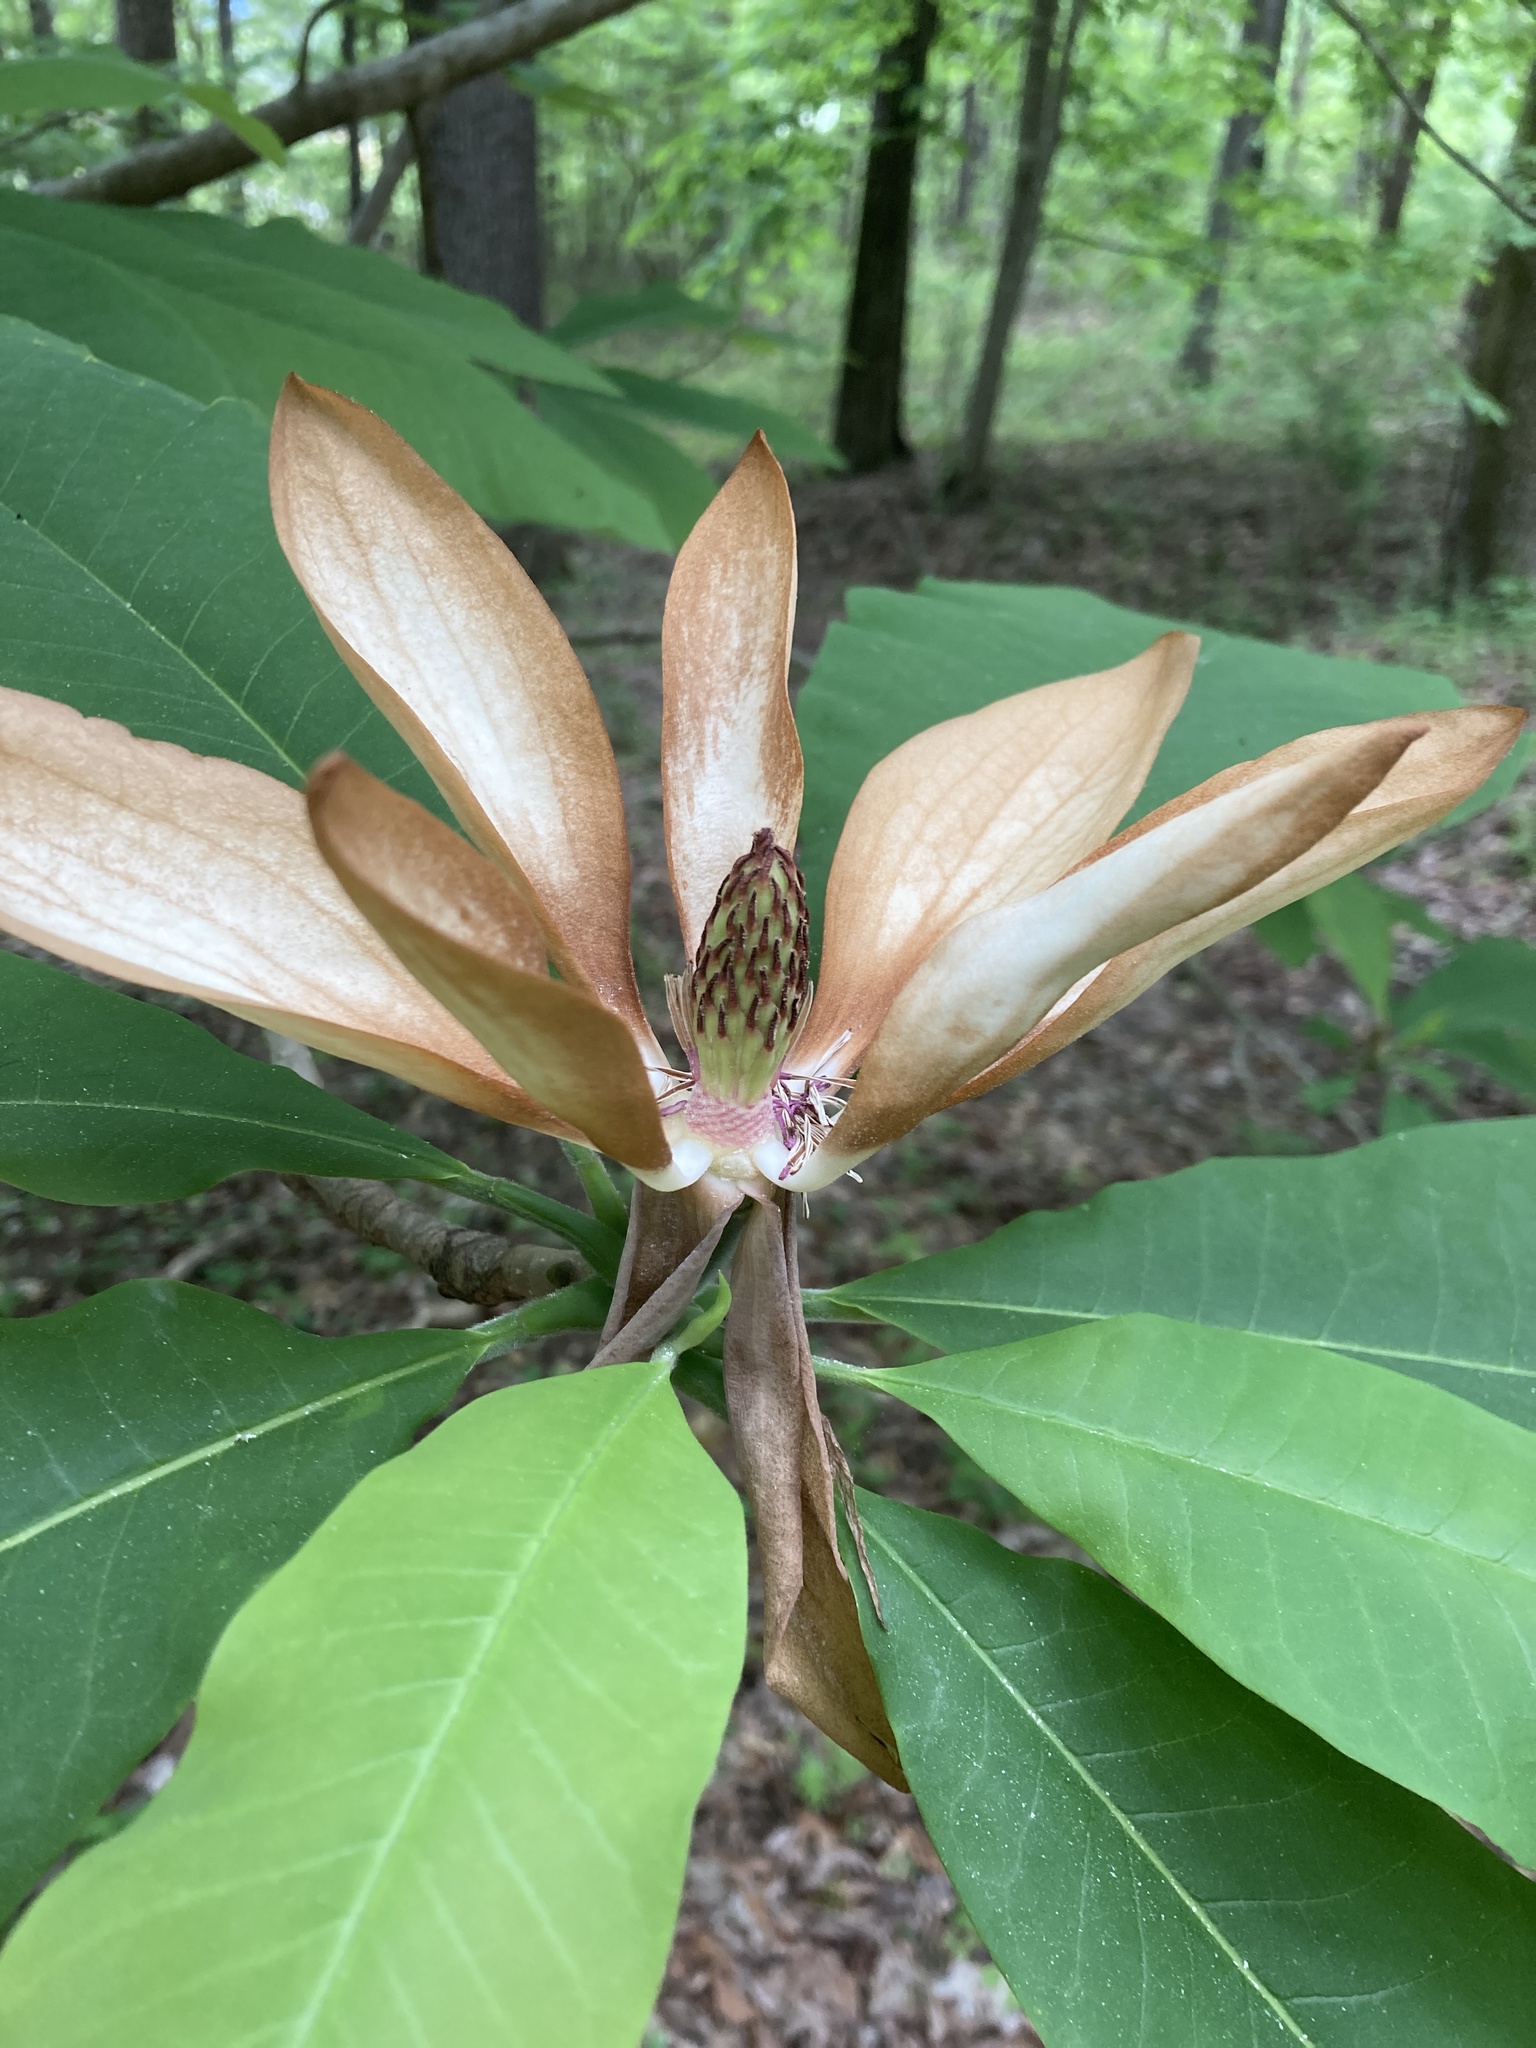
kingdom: Plantae
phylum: Tracheophyta
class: Magnoliopsida
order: Magnoliales
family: Magnoliaceae
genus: Magnolia
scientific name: Magnolia tripetala
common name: Umbrella magnolia
